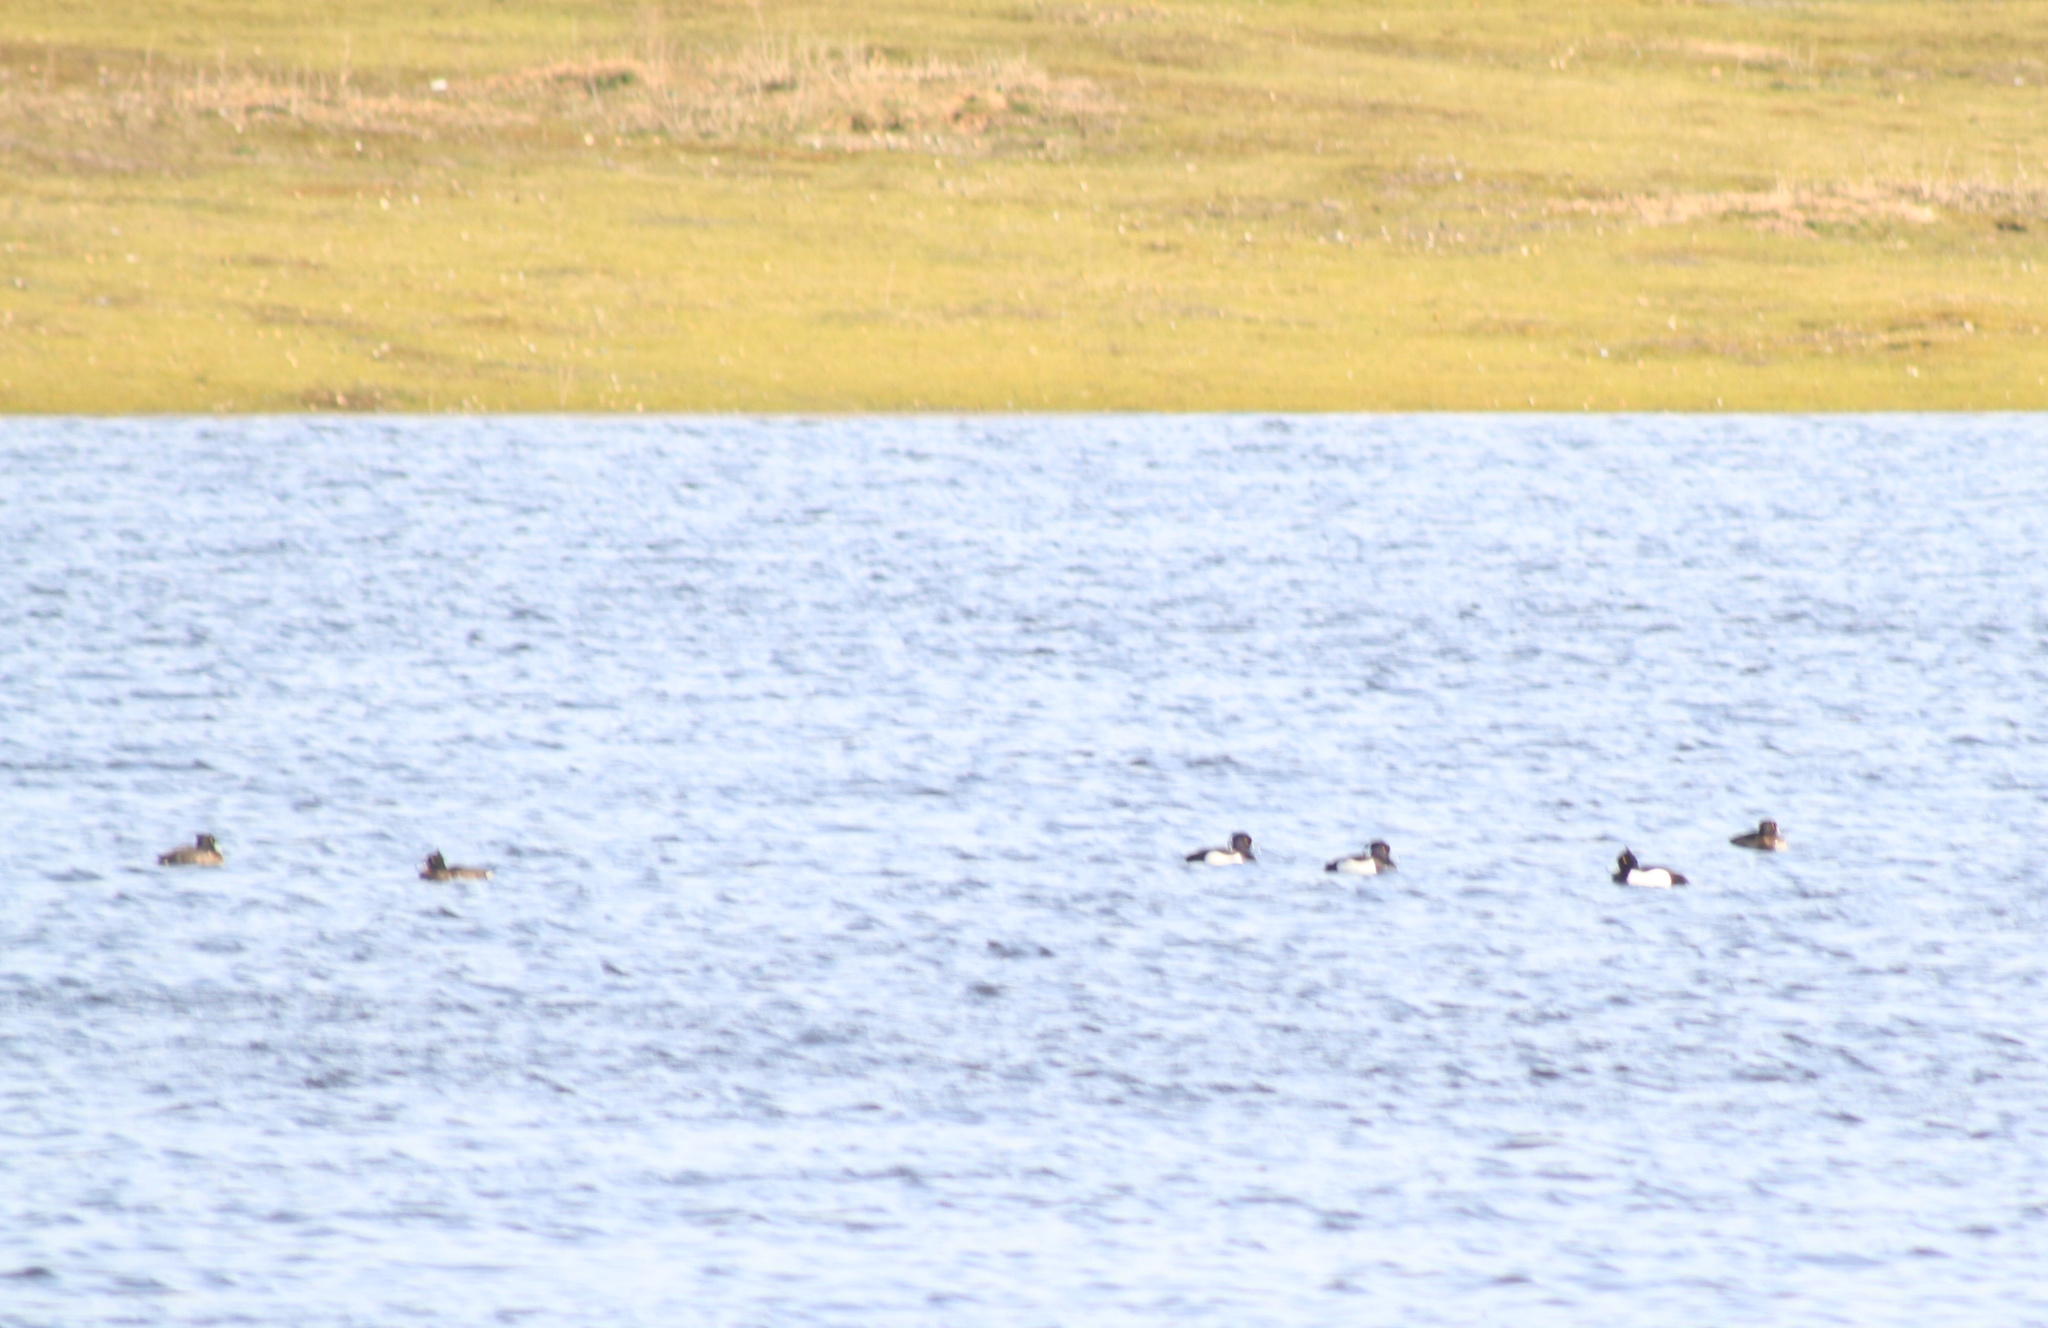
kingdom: Animalia
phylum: Chordata
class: Aves
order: Anseriformes
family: Anatidae
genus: Aythya
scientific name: Aythya fuligula
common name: Tufted duck
